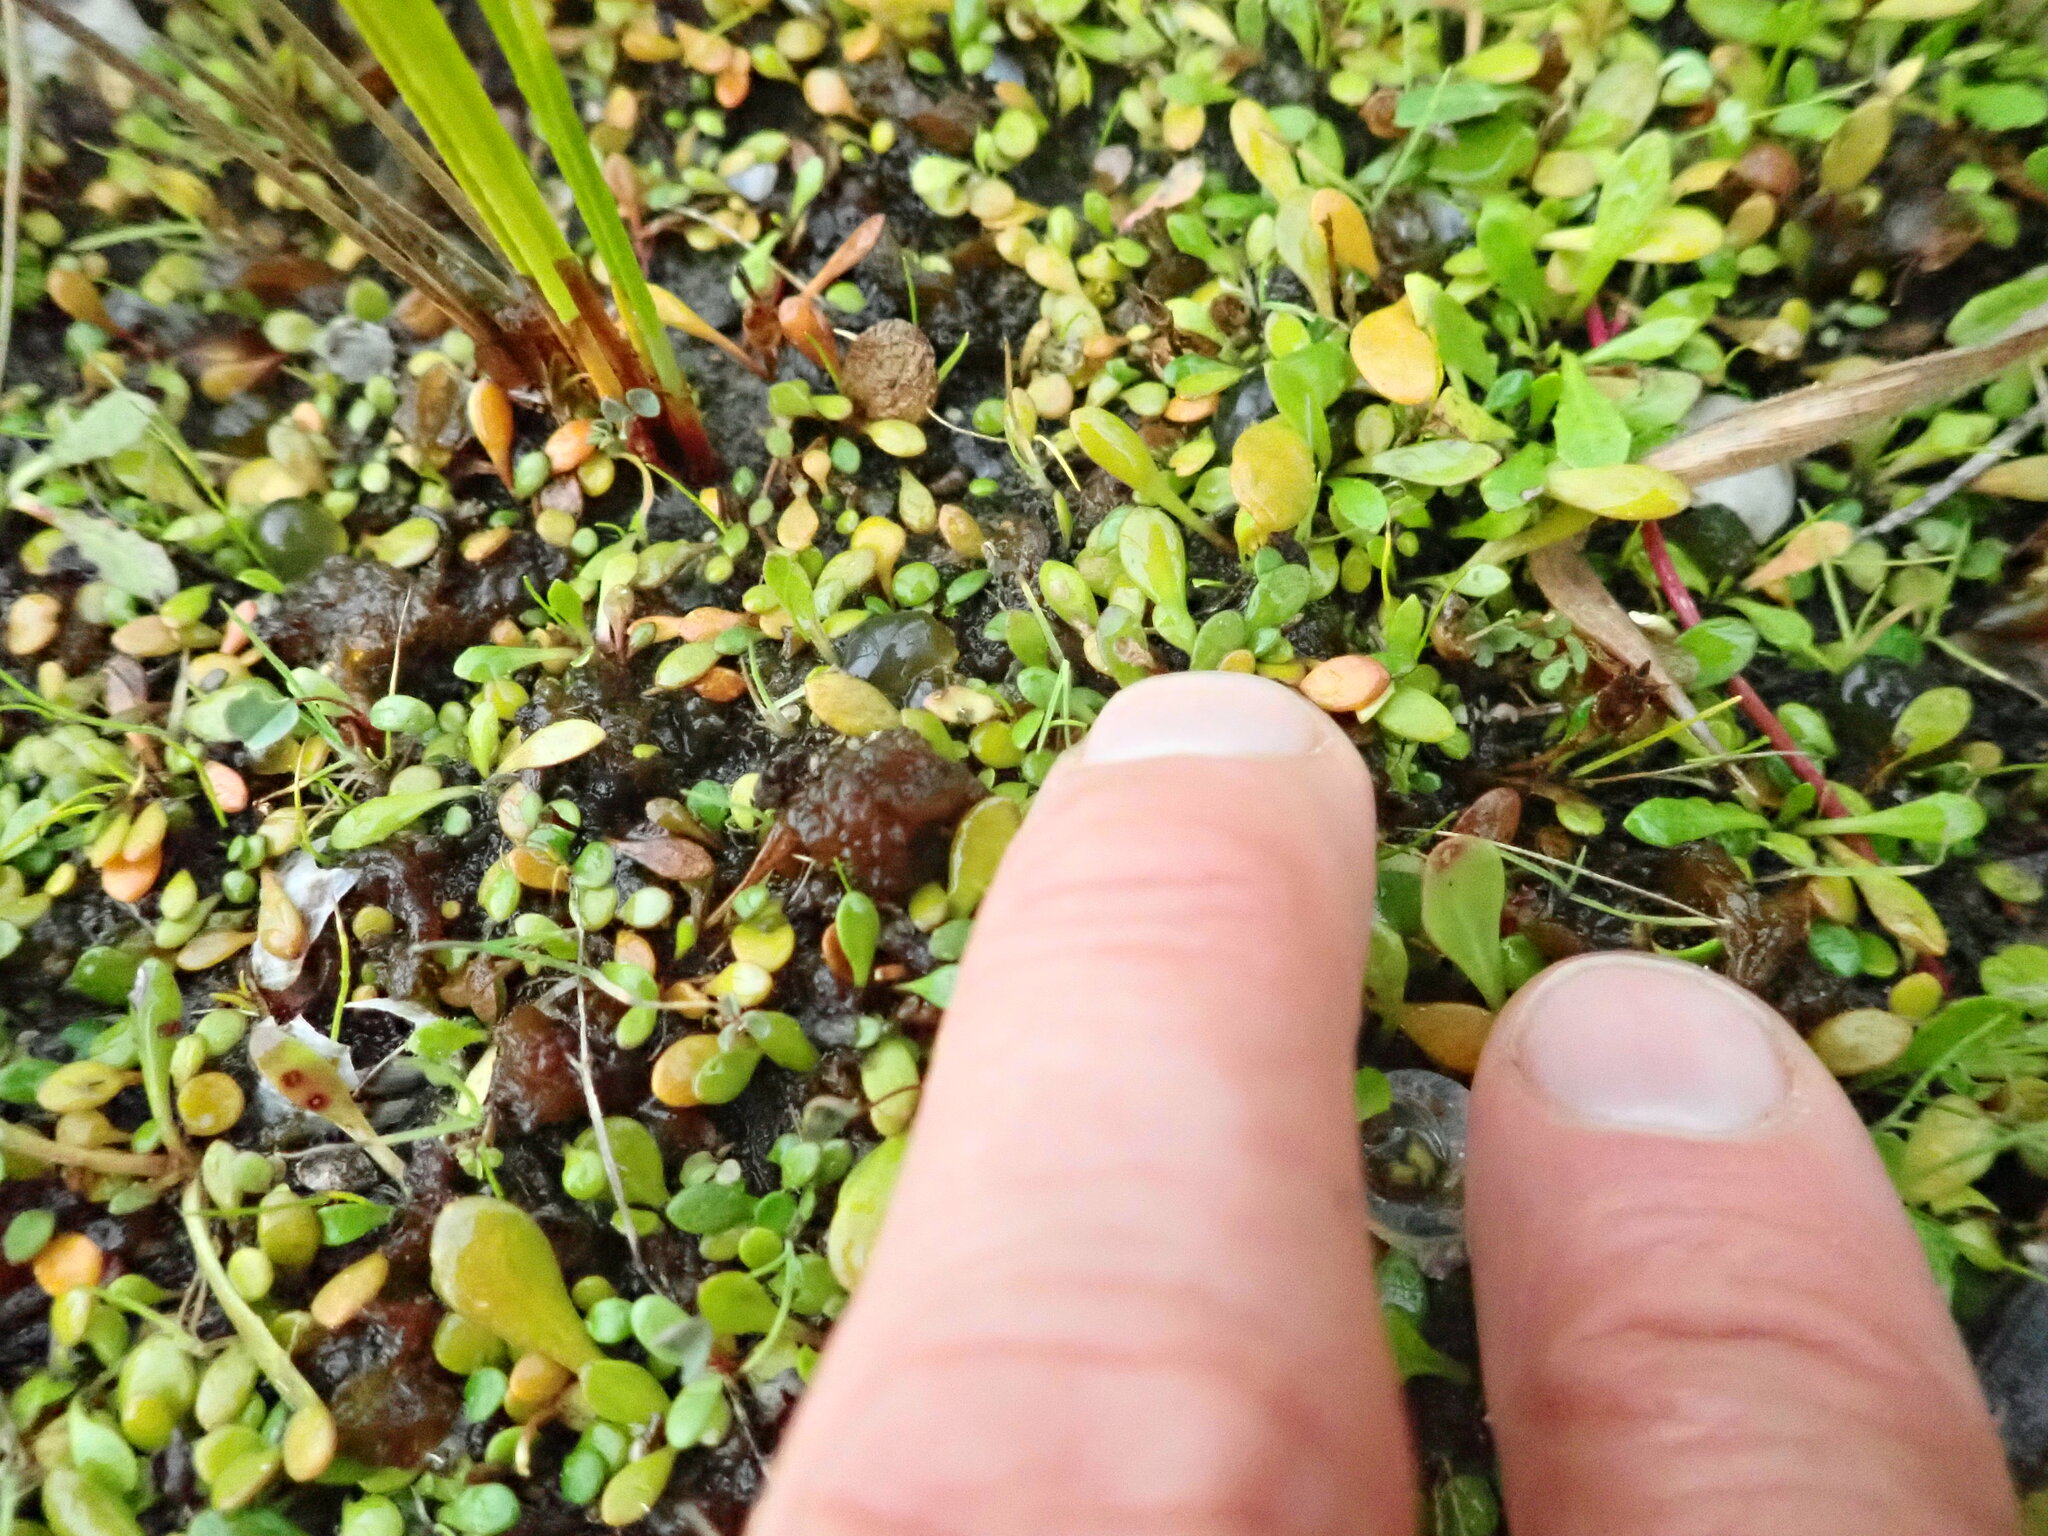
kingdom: Plantae
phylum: Tracheophyta
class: Magnoliopsida
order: Asterales
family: Goodeniaceae
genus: Goodenia
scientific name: Goodenia radicans
